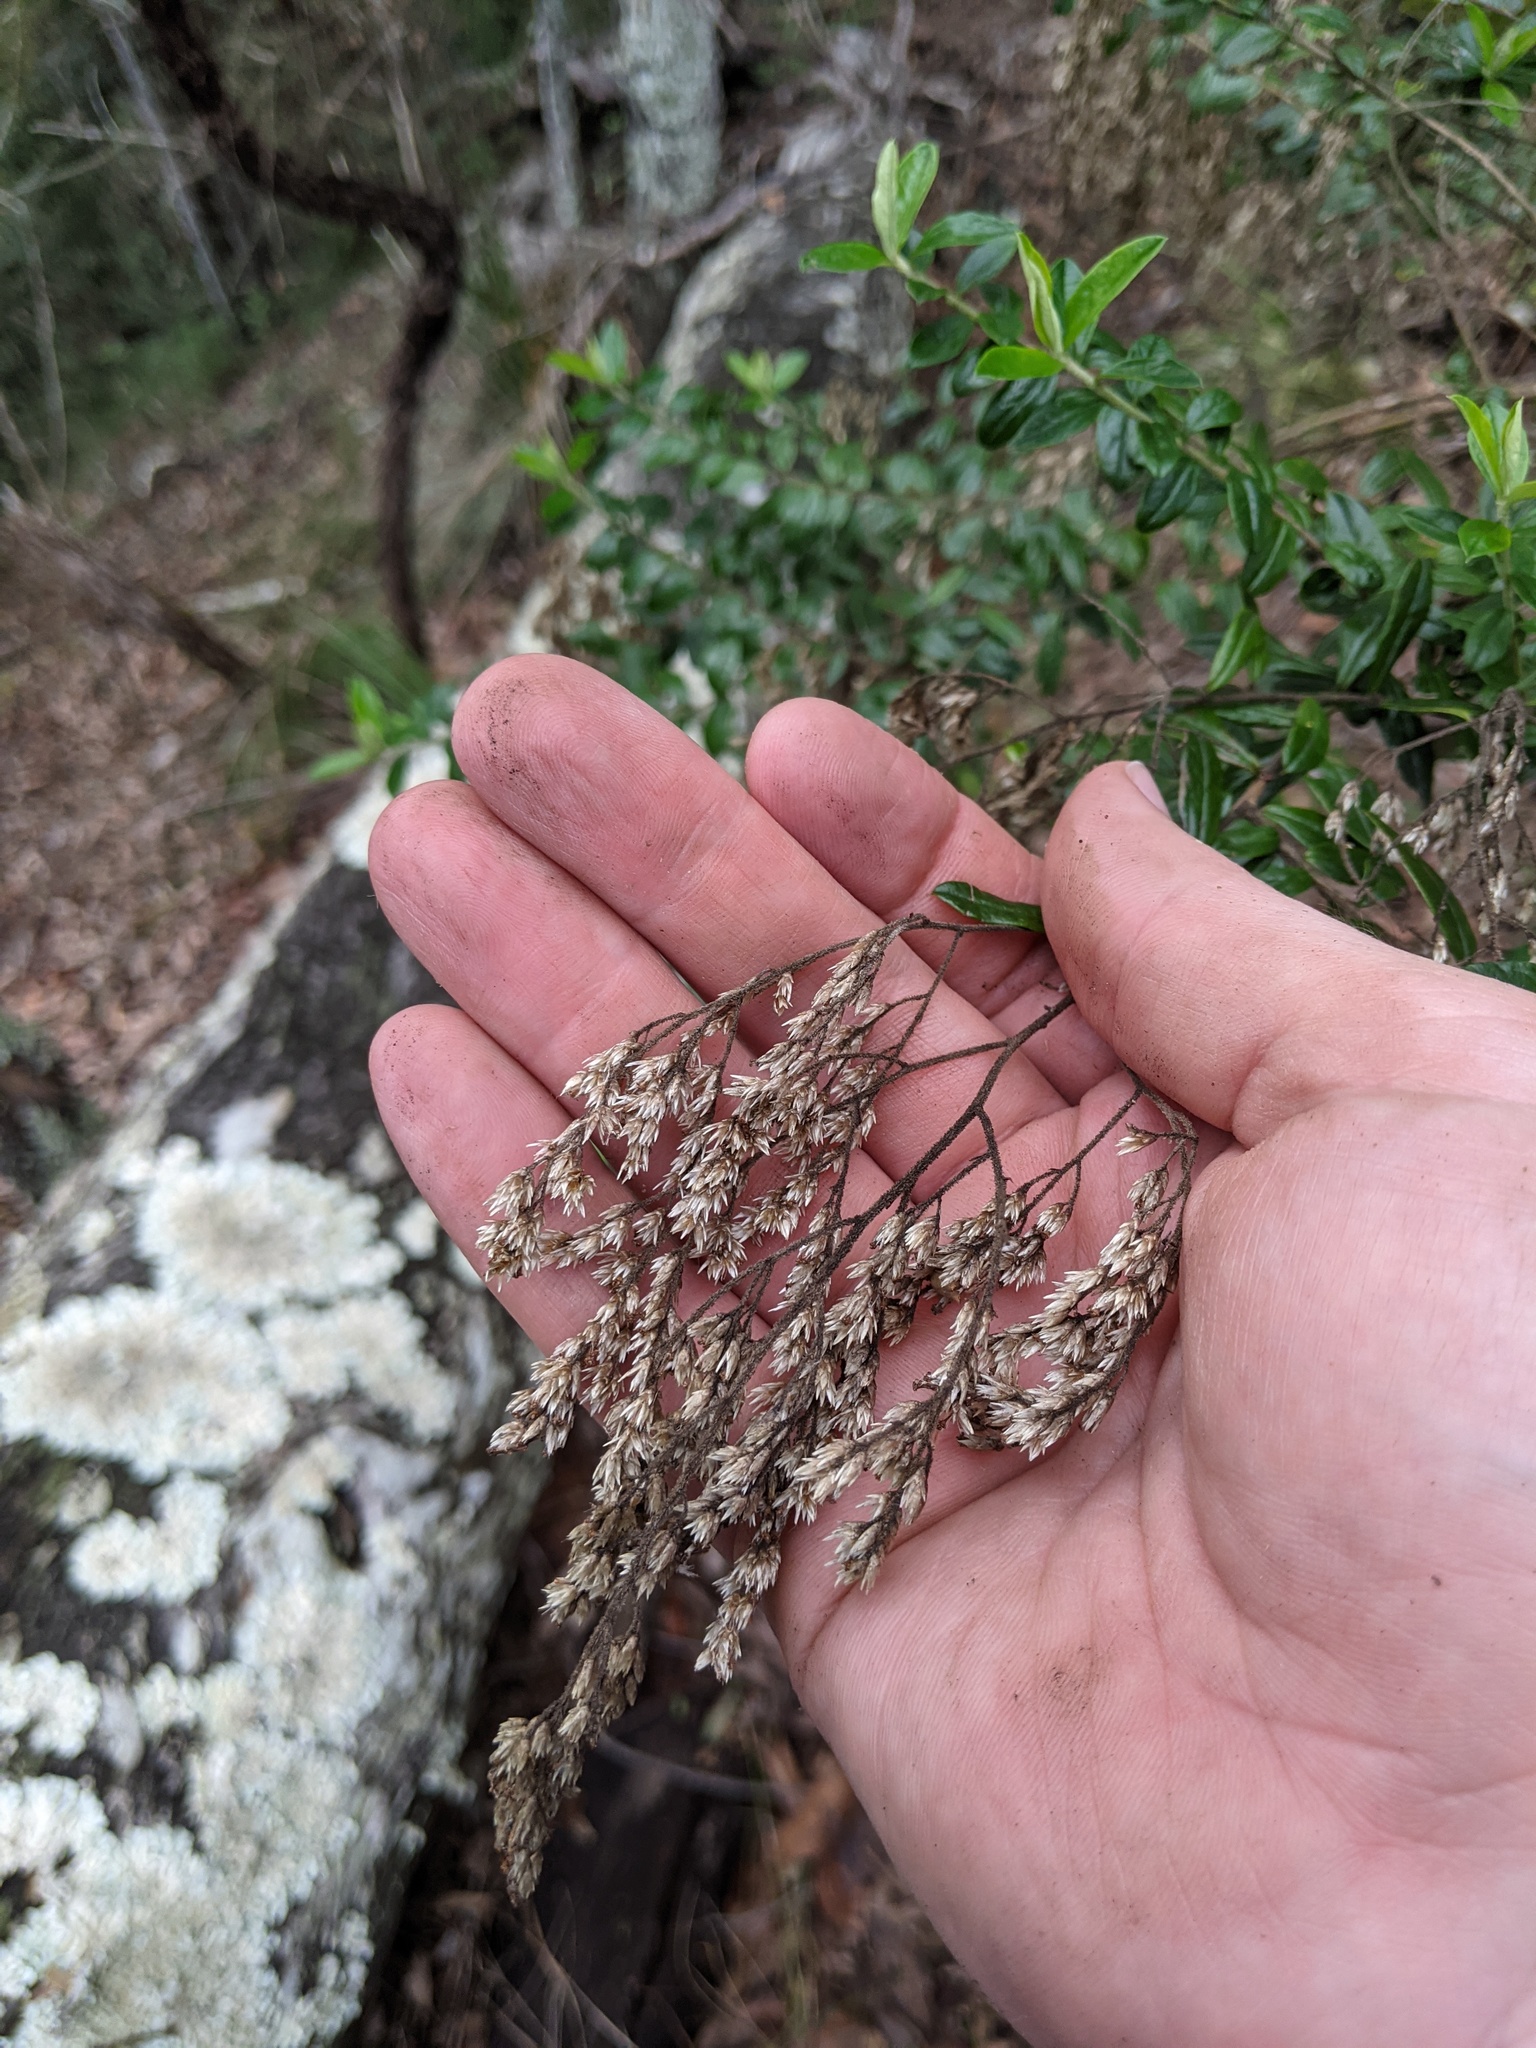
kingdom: Plantae
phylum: Tracheophyta
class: Magnoliopsida
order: Asterales
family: Asteraceae
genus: Cassinia
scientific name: Cassinia subtropica
